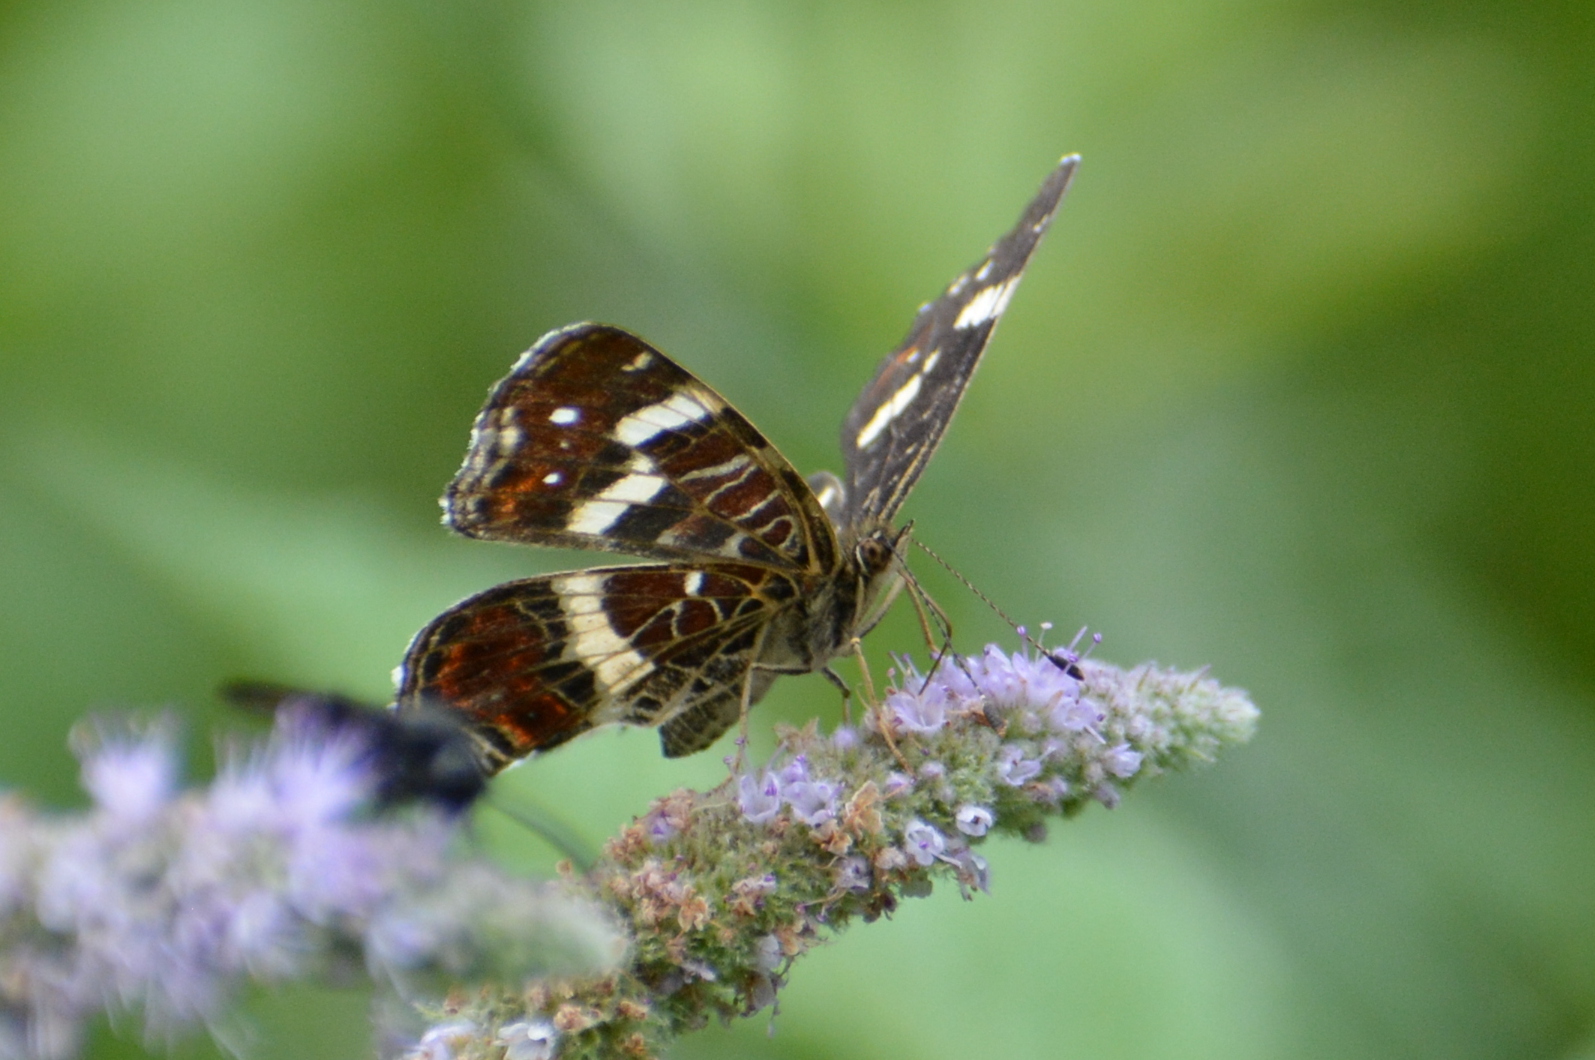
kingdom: Animalia
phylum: Arthropoda
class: Insecta
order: Lepidoptera
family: Nymphalidae
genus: Araschnia
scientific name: Araschnia levana
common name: Map butterfly
